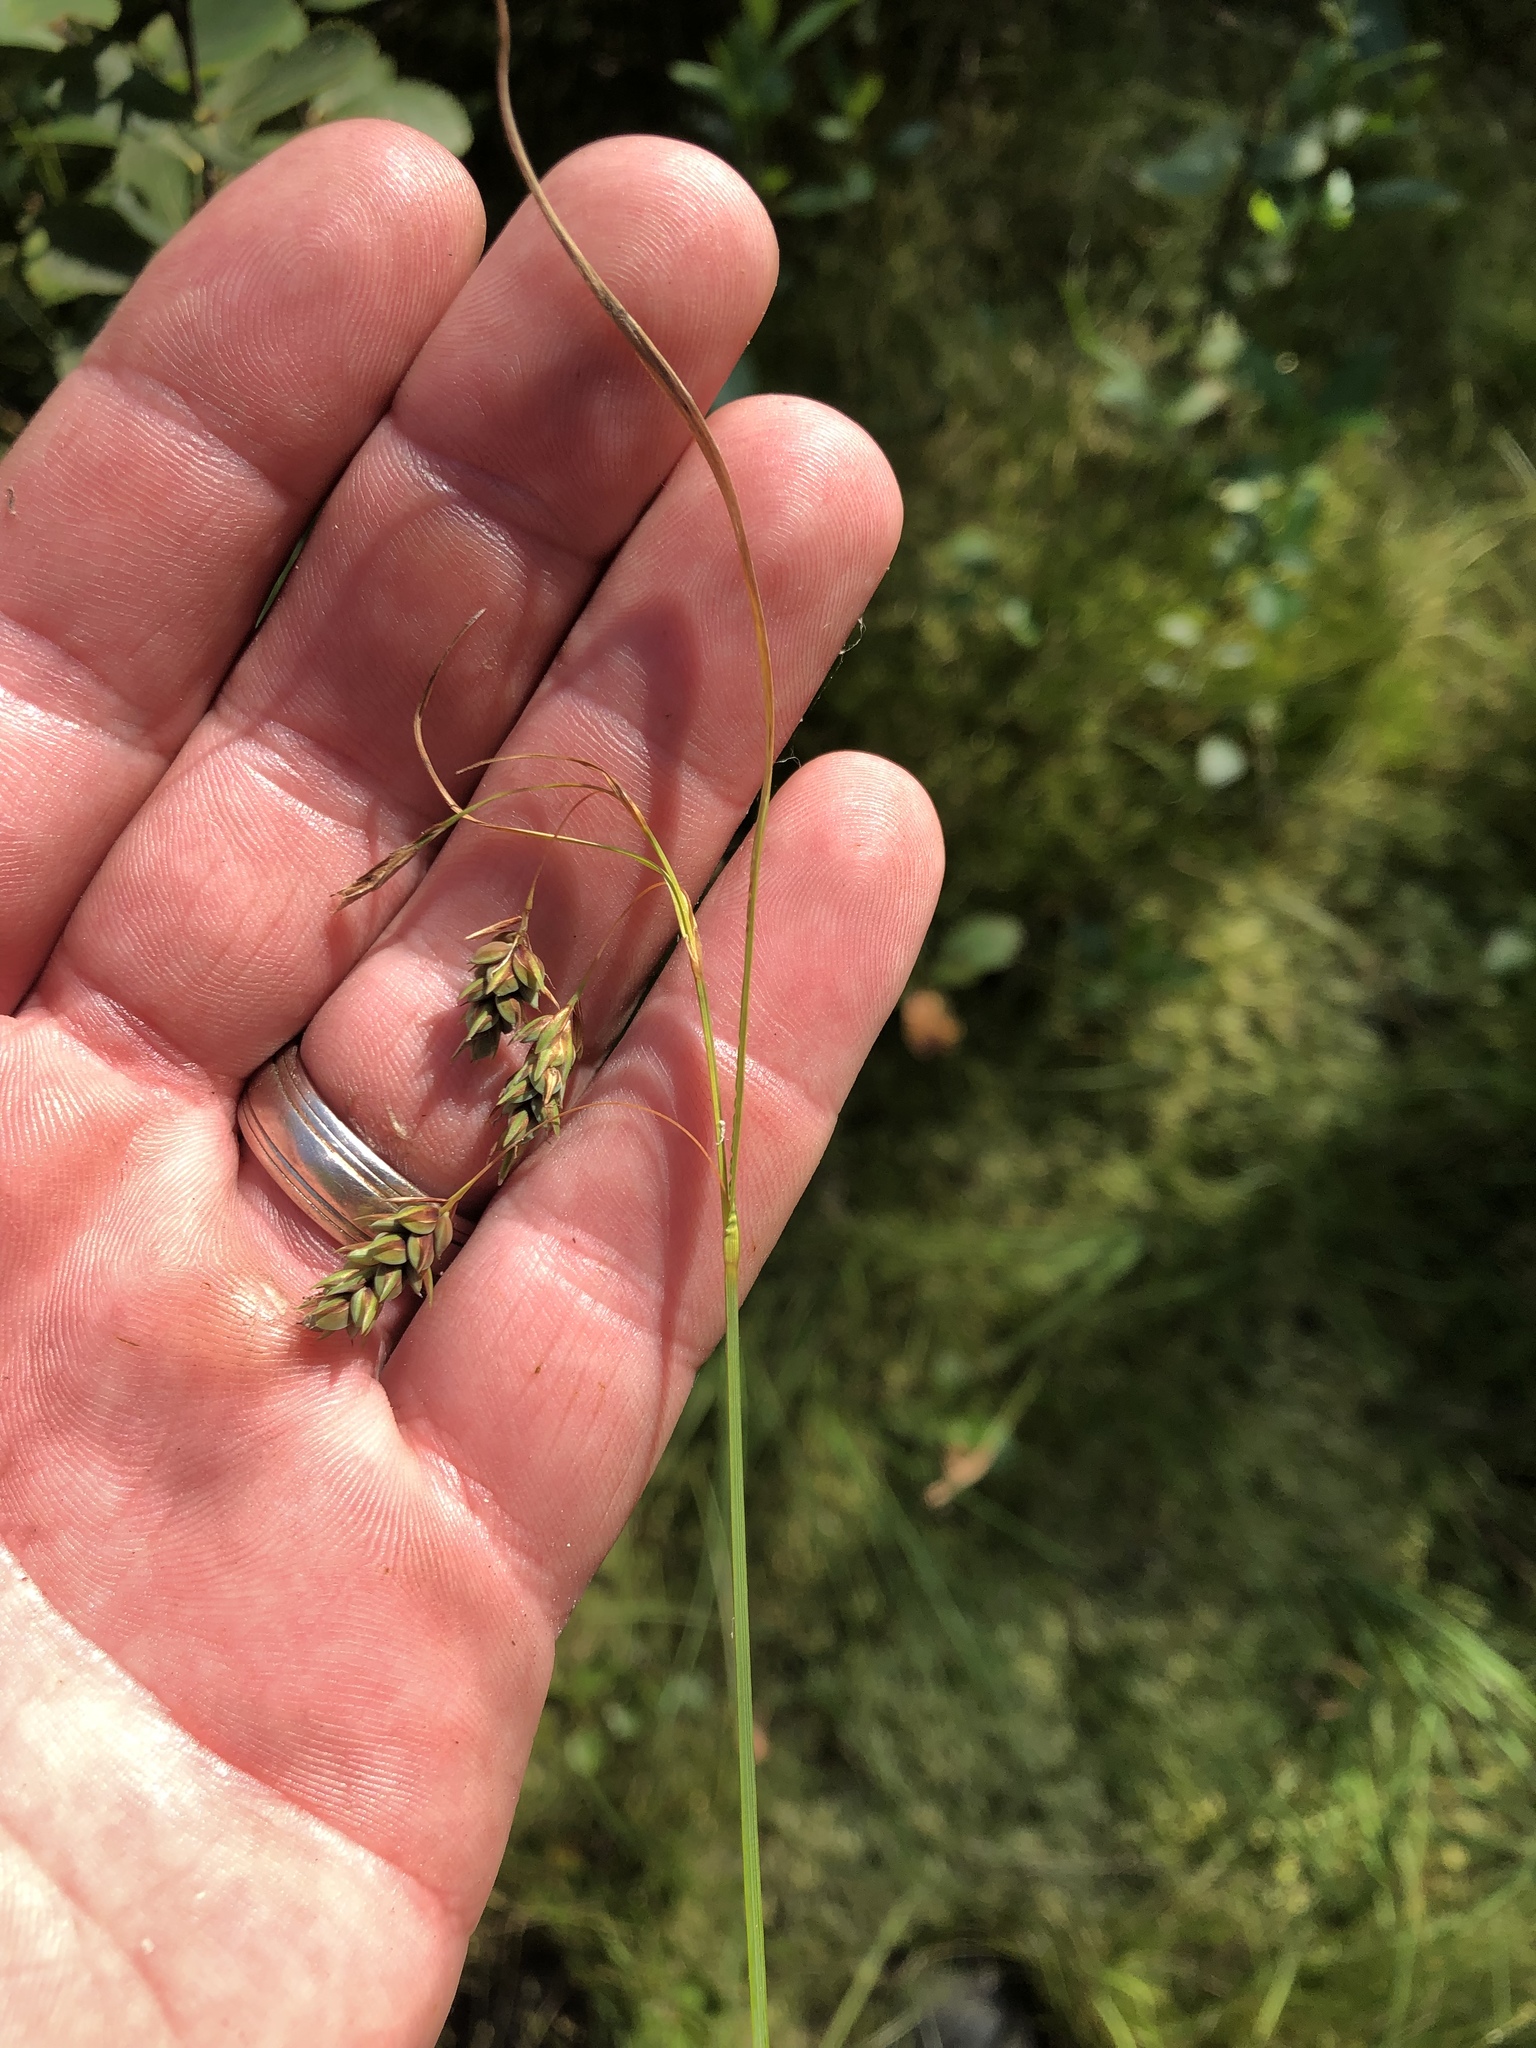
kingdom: Plantae
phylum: Tracheophyta
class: Liliopsida
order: Poales
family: Cyperaceae
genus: Carex
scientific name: Carex magellanica
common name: Bog sedge
